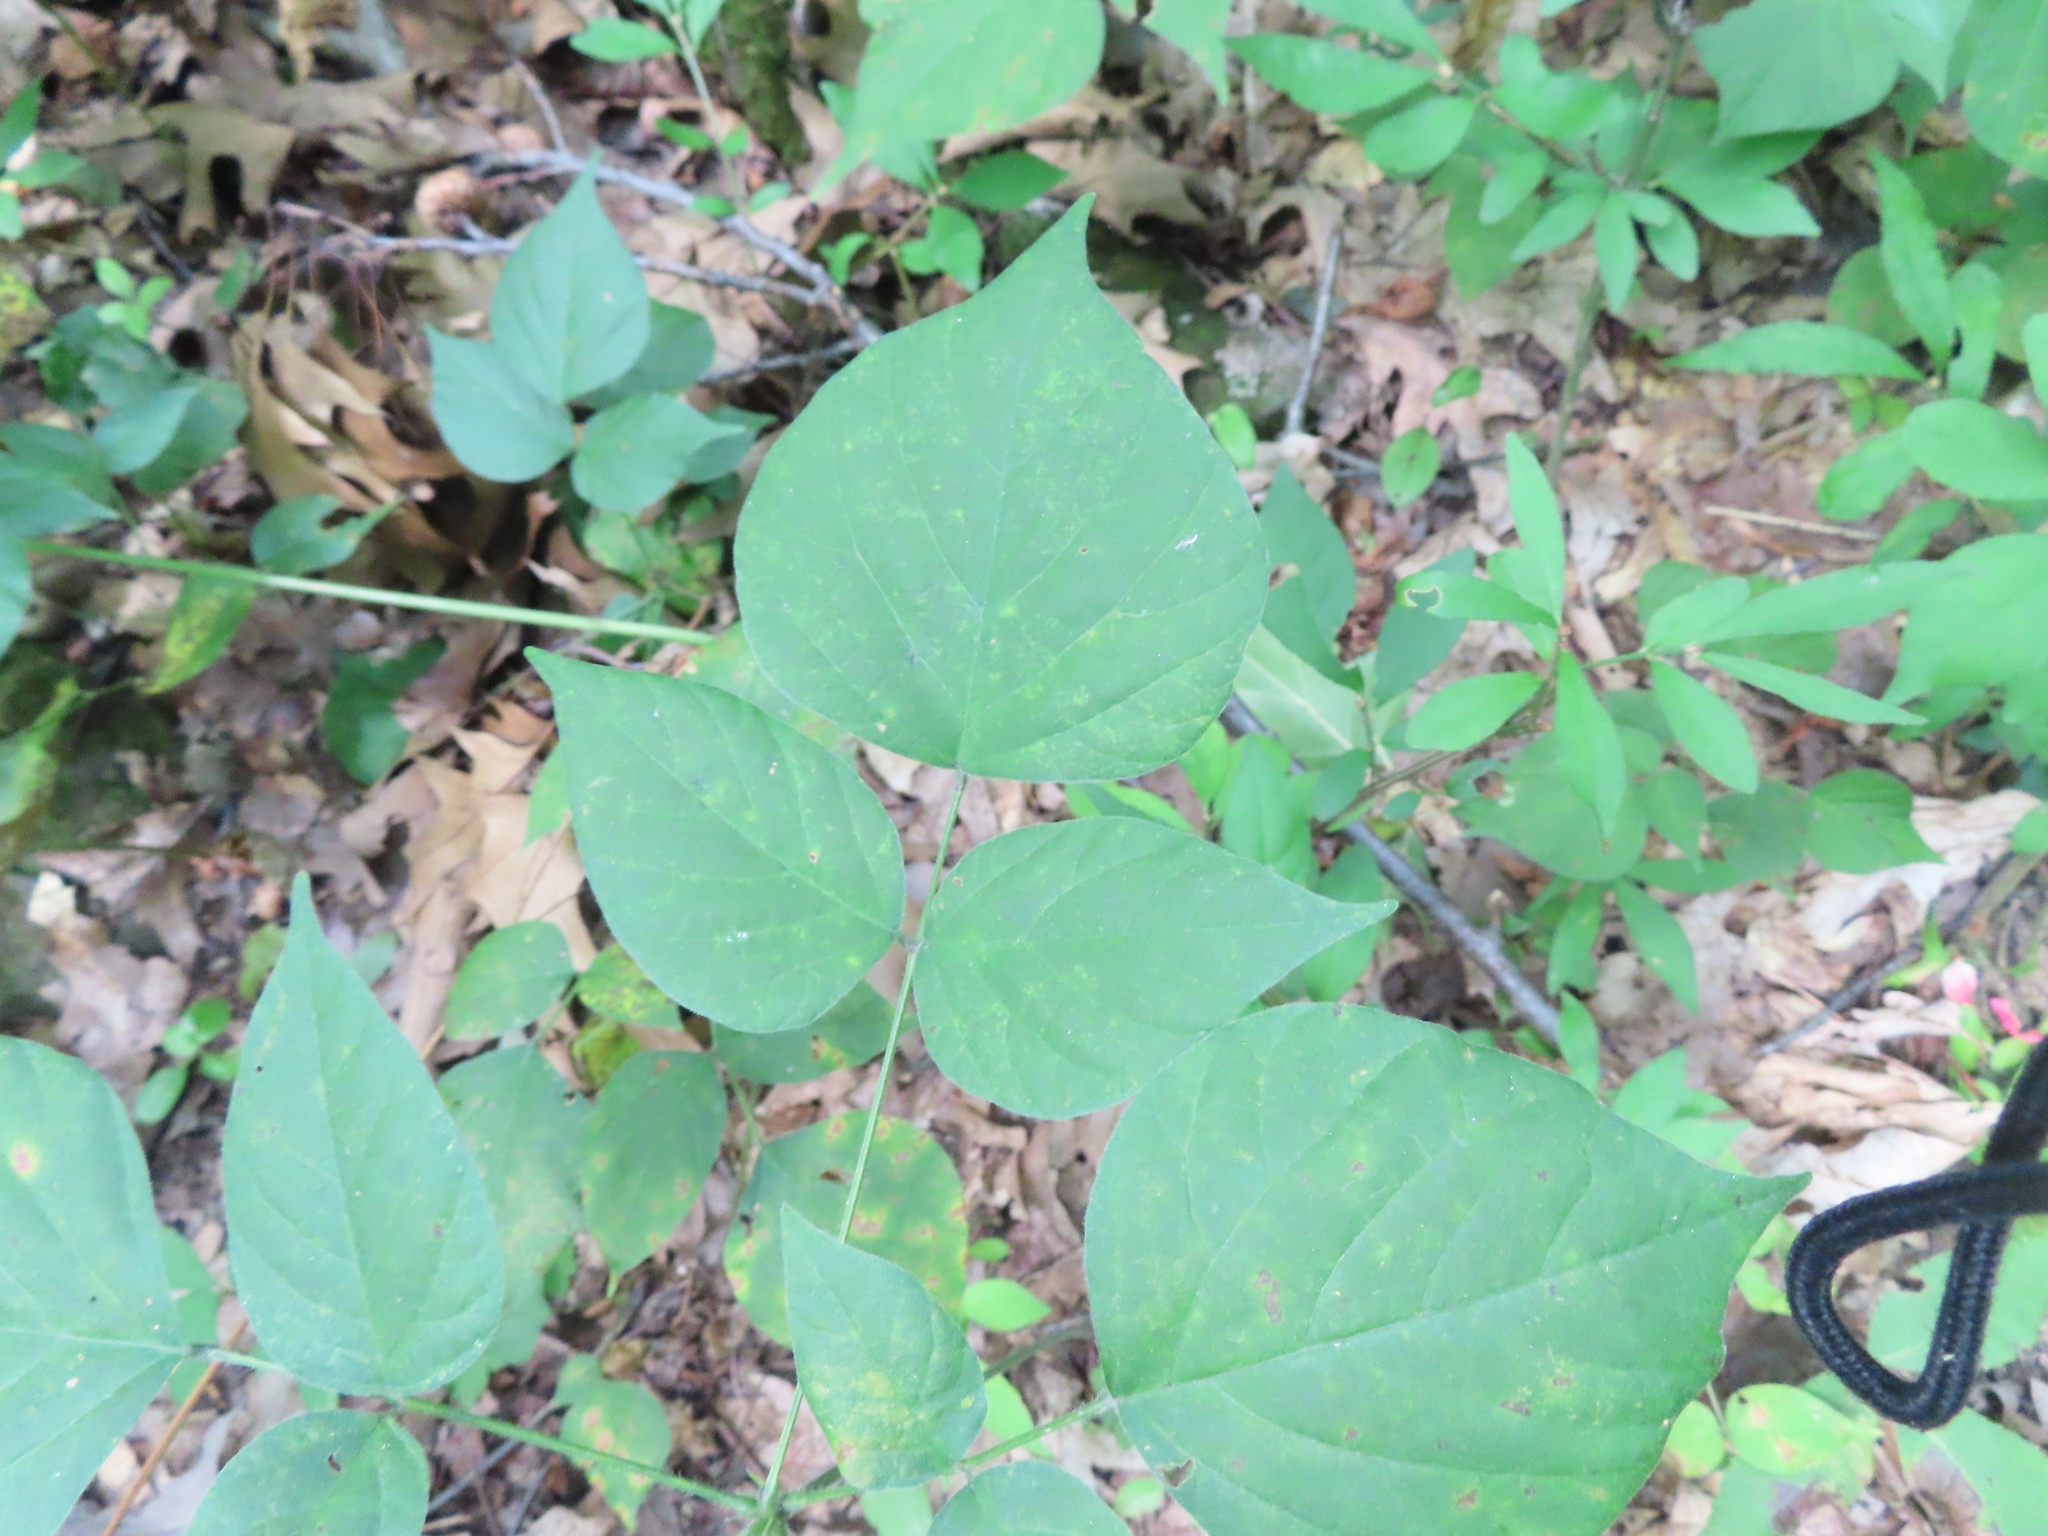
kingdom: Plantae
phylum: Tracheophyta
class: Magnoliopsida
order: Fabales
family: Fabaceae
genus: Hylodesmum
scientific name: Hylodesmum glutinosum
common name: Clustered-leaved tick-trefoil
